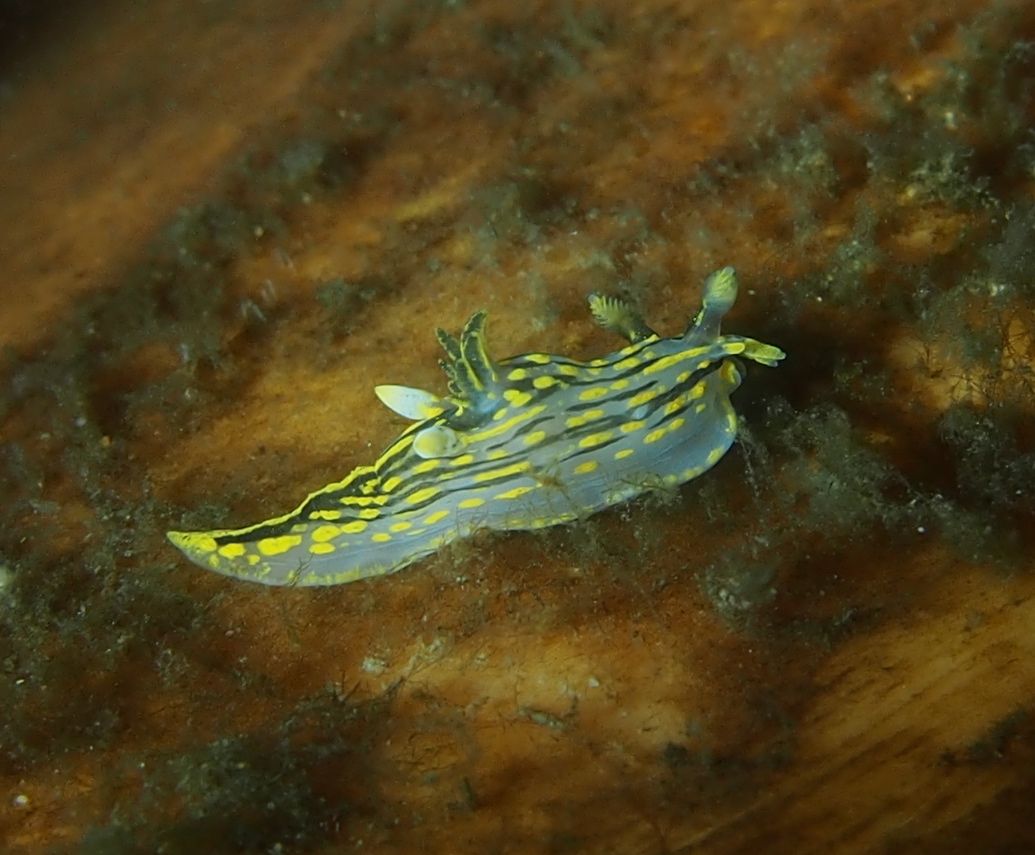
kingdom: Animalia
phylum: Mollusca
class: Gastropoda
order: Nudibranchia
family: Polyceridae
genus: Polycera
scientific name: Polycera quadrilineata
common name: Four-striped polycera
